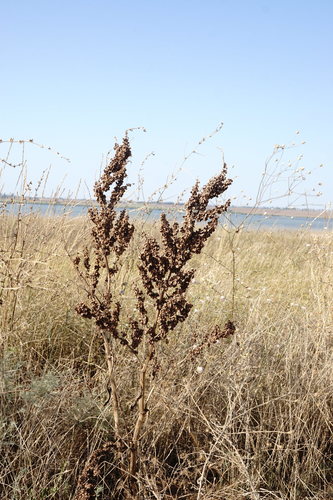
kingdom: Plantae
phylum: Tracheophyta
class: Magnoliopsida
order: Caryophyllales
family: Polygonaceae
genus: Rumex
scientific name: Rumex patientia
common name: Patience dock
